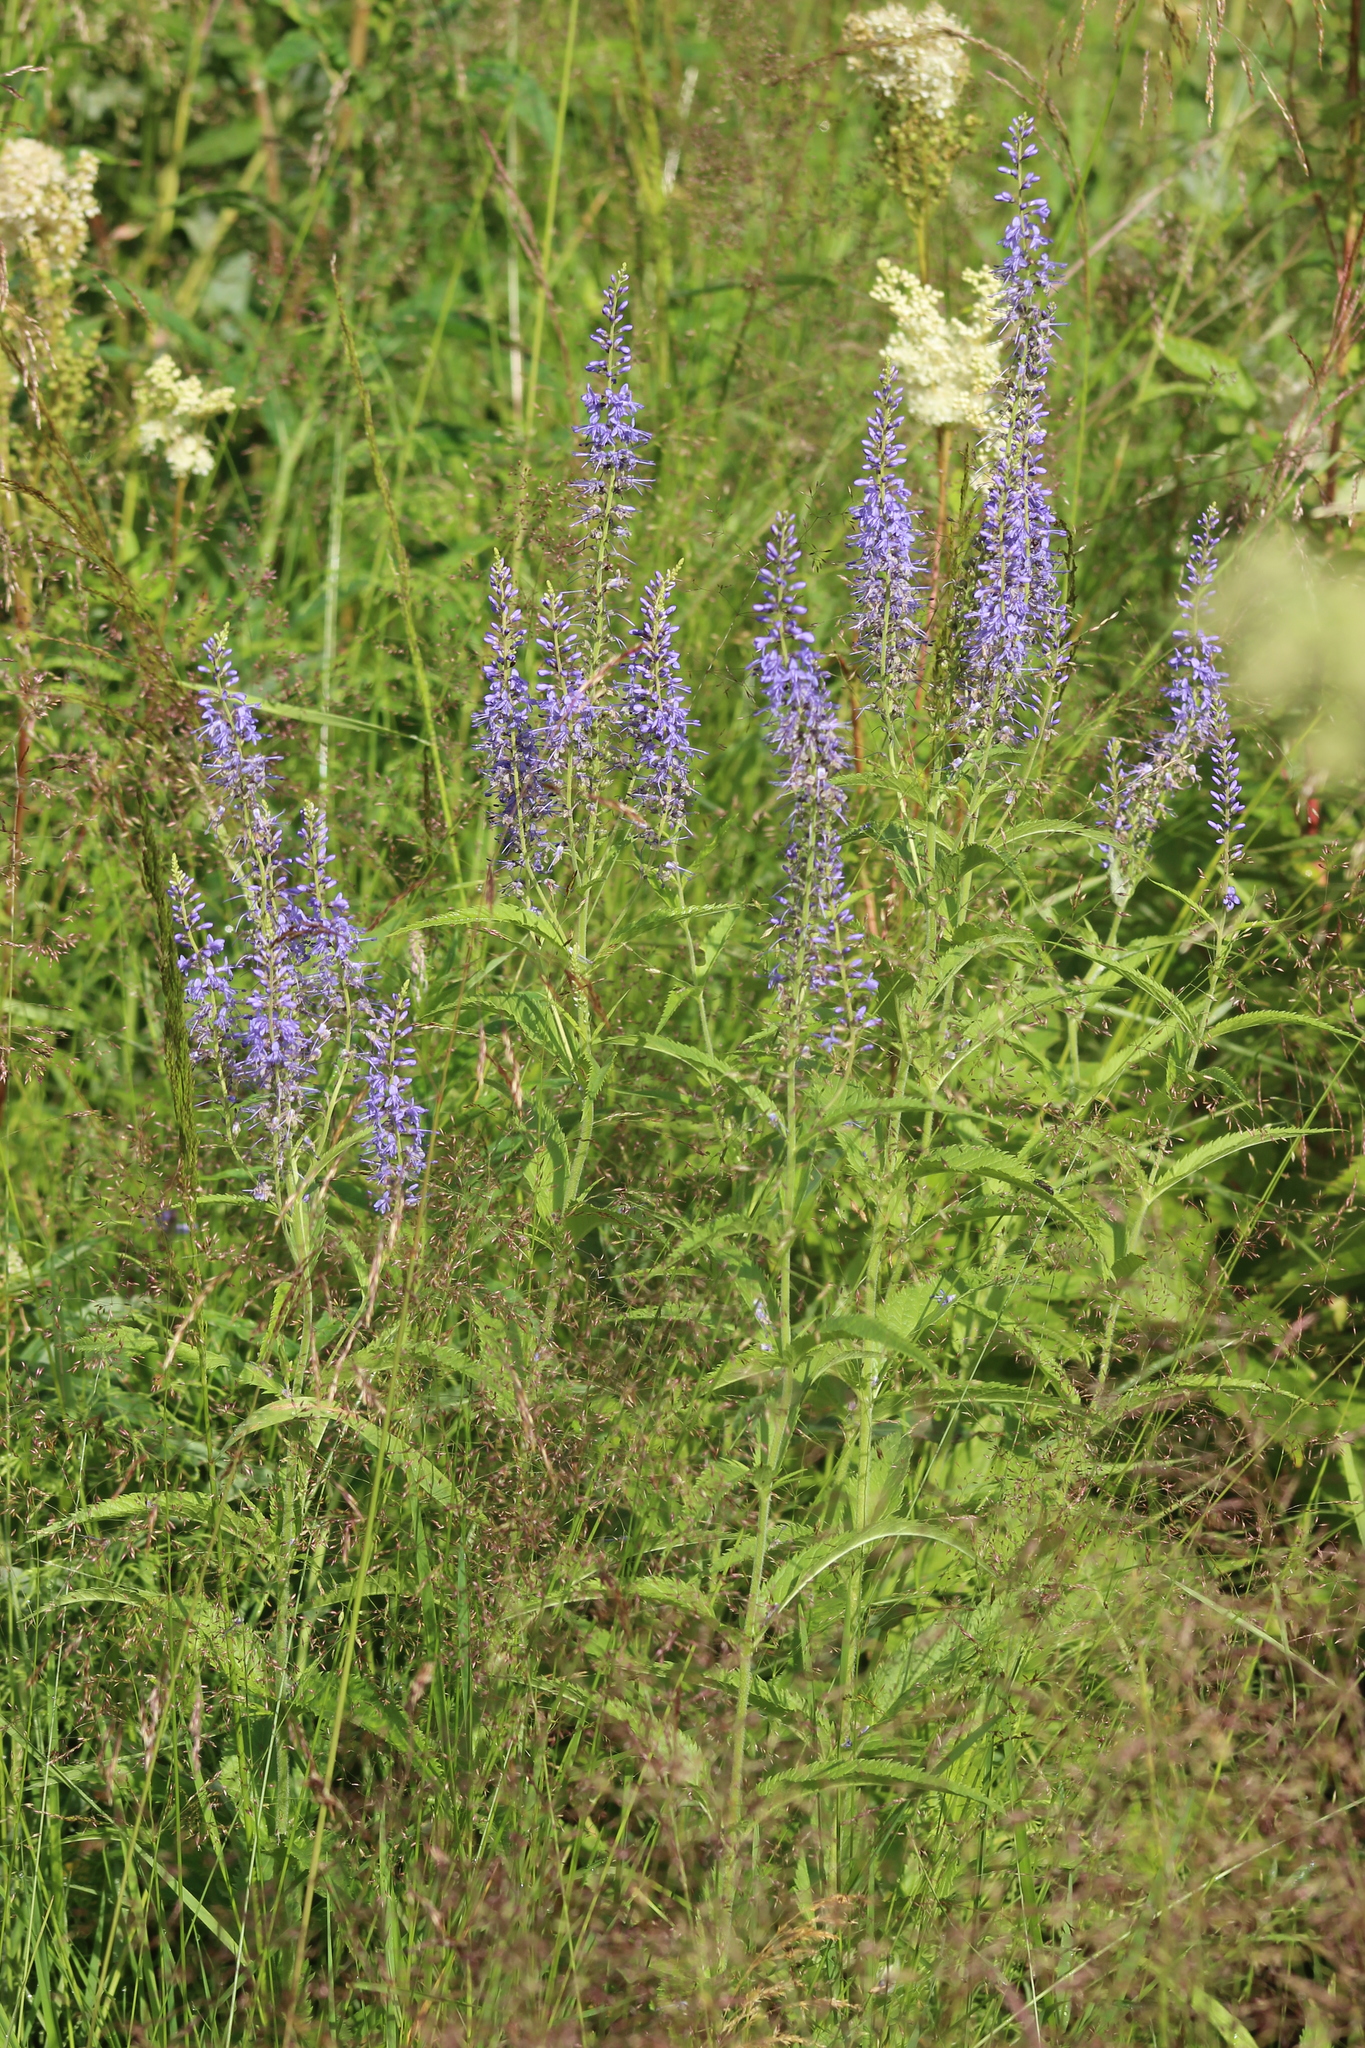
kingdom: Plantae
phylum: Tracheophyta
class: Magnoliopsida
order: Lamiales
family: Plantaginaceae
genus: Veronica
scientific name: Veronica longifolia
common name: Garden speedwell
